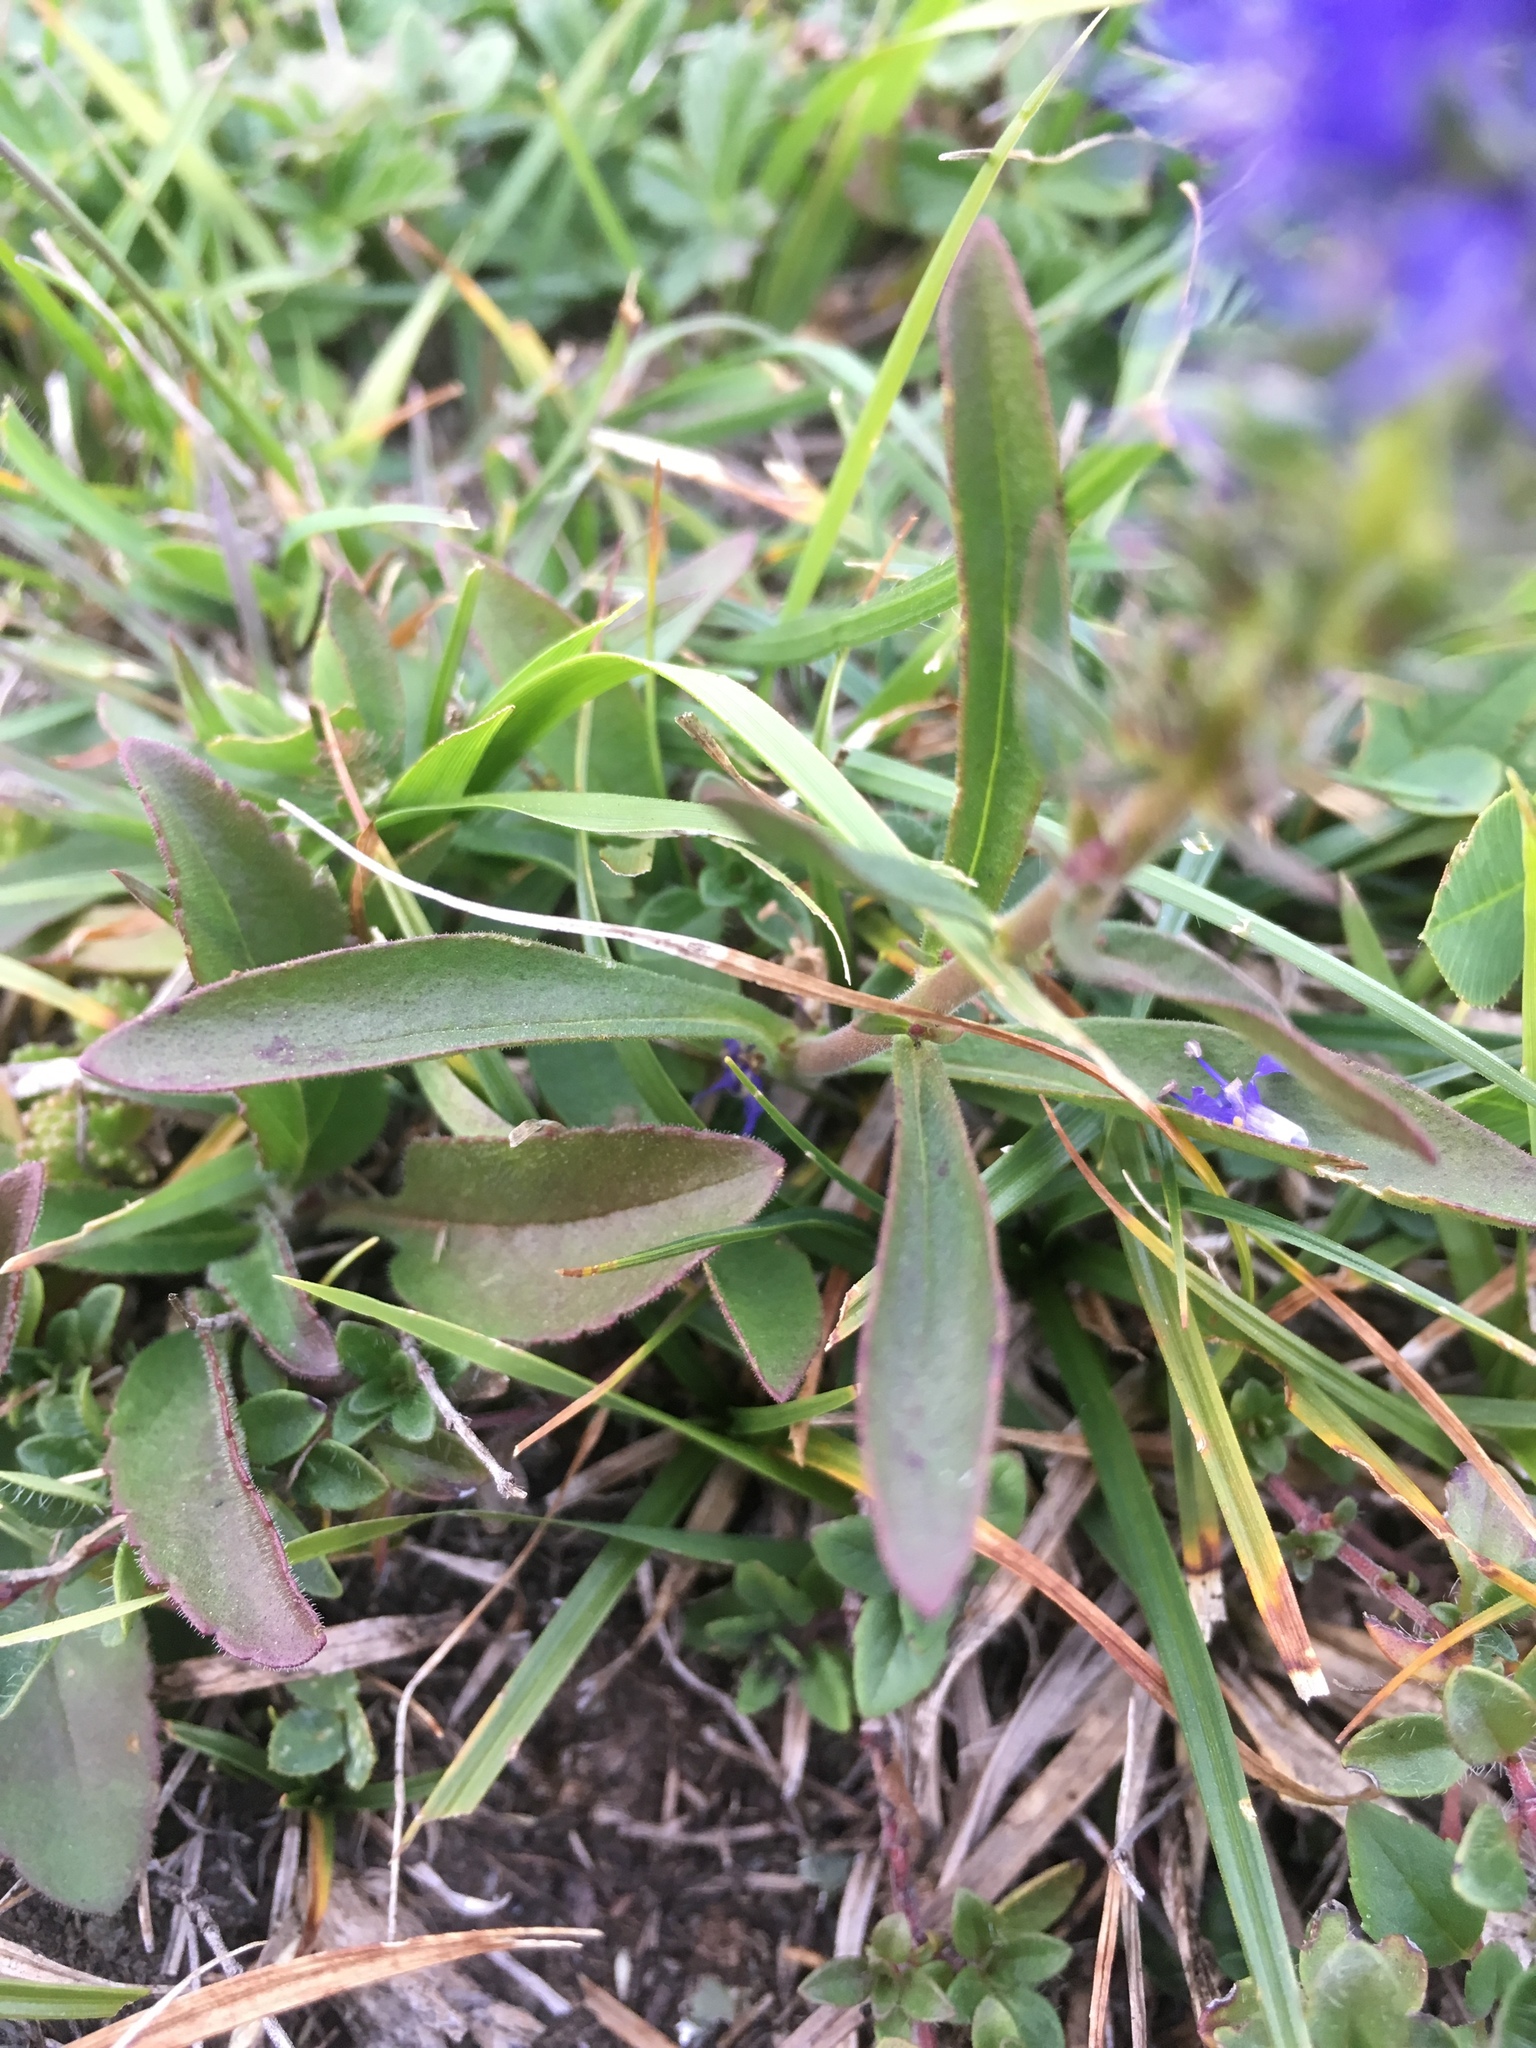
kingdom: Plantae
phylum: Tracheophyta
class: Magnoliopsida
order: Lamiales
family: Plantaginaceae
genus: Veronica
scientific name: Veronica spicata
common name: Spiked speedwell
